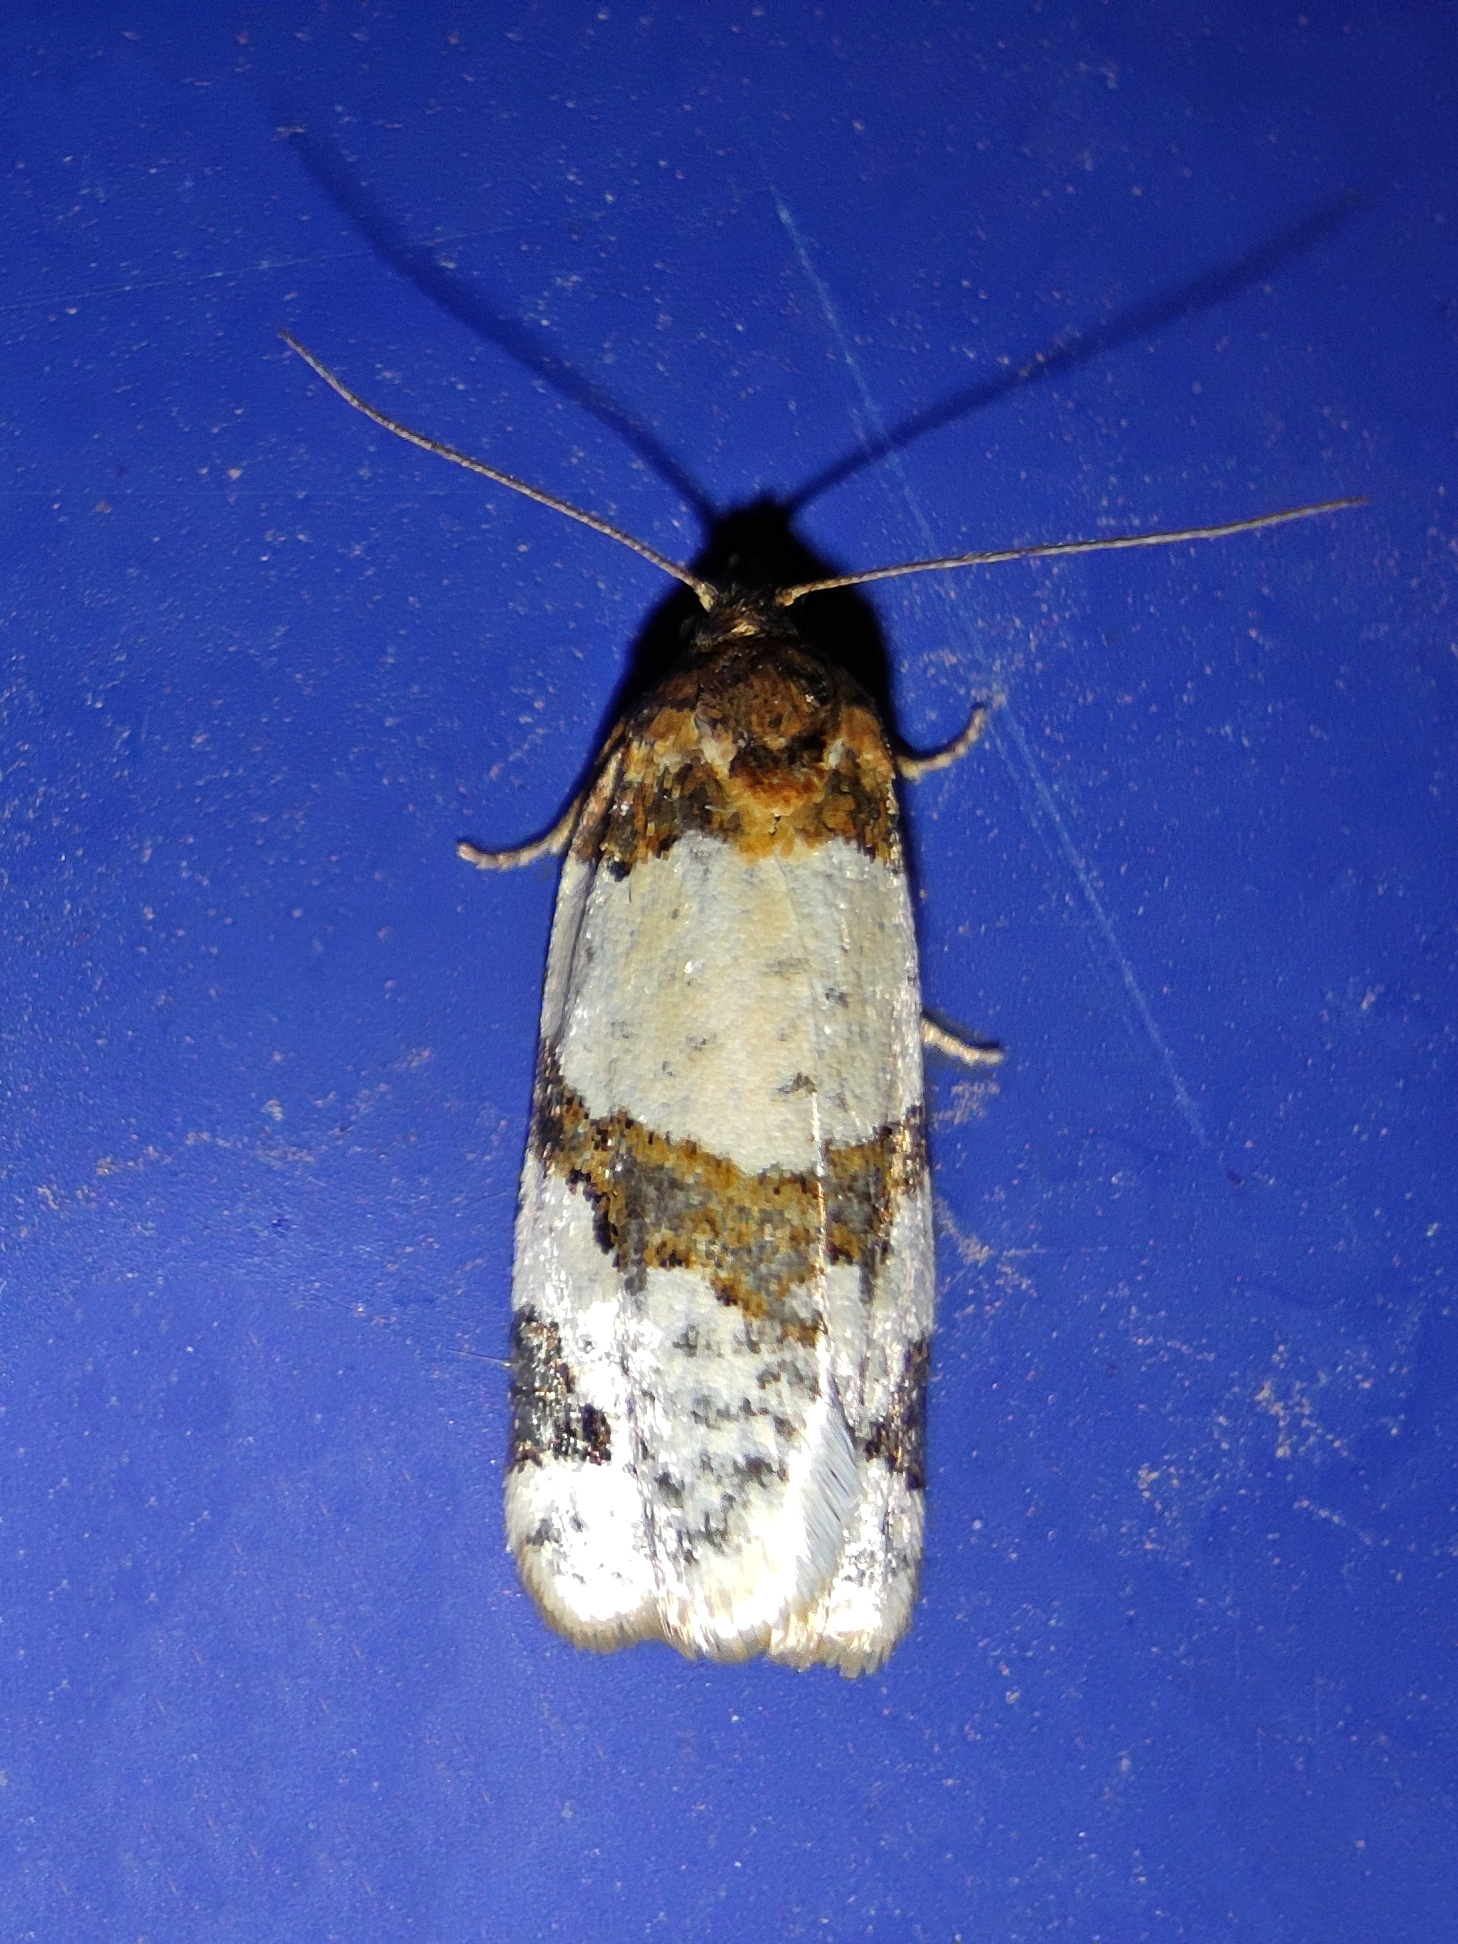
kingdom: Animalia
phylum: Arthropoda
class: Insecta
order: Lepidoptera
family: Tortricidae
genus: Periclepsis
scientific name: Periclepsis cinctana
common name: Dover twist
